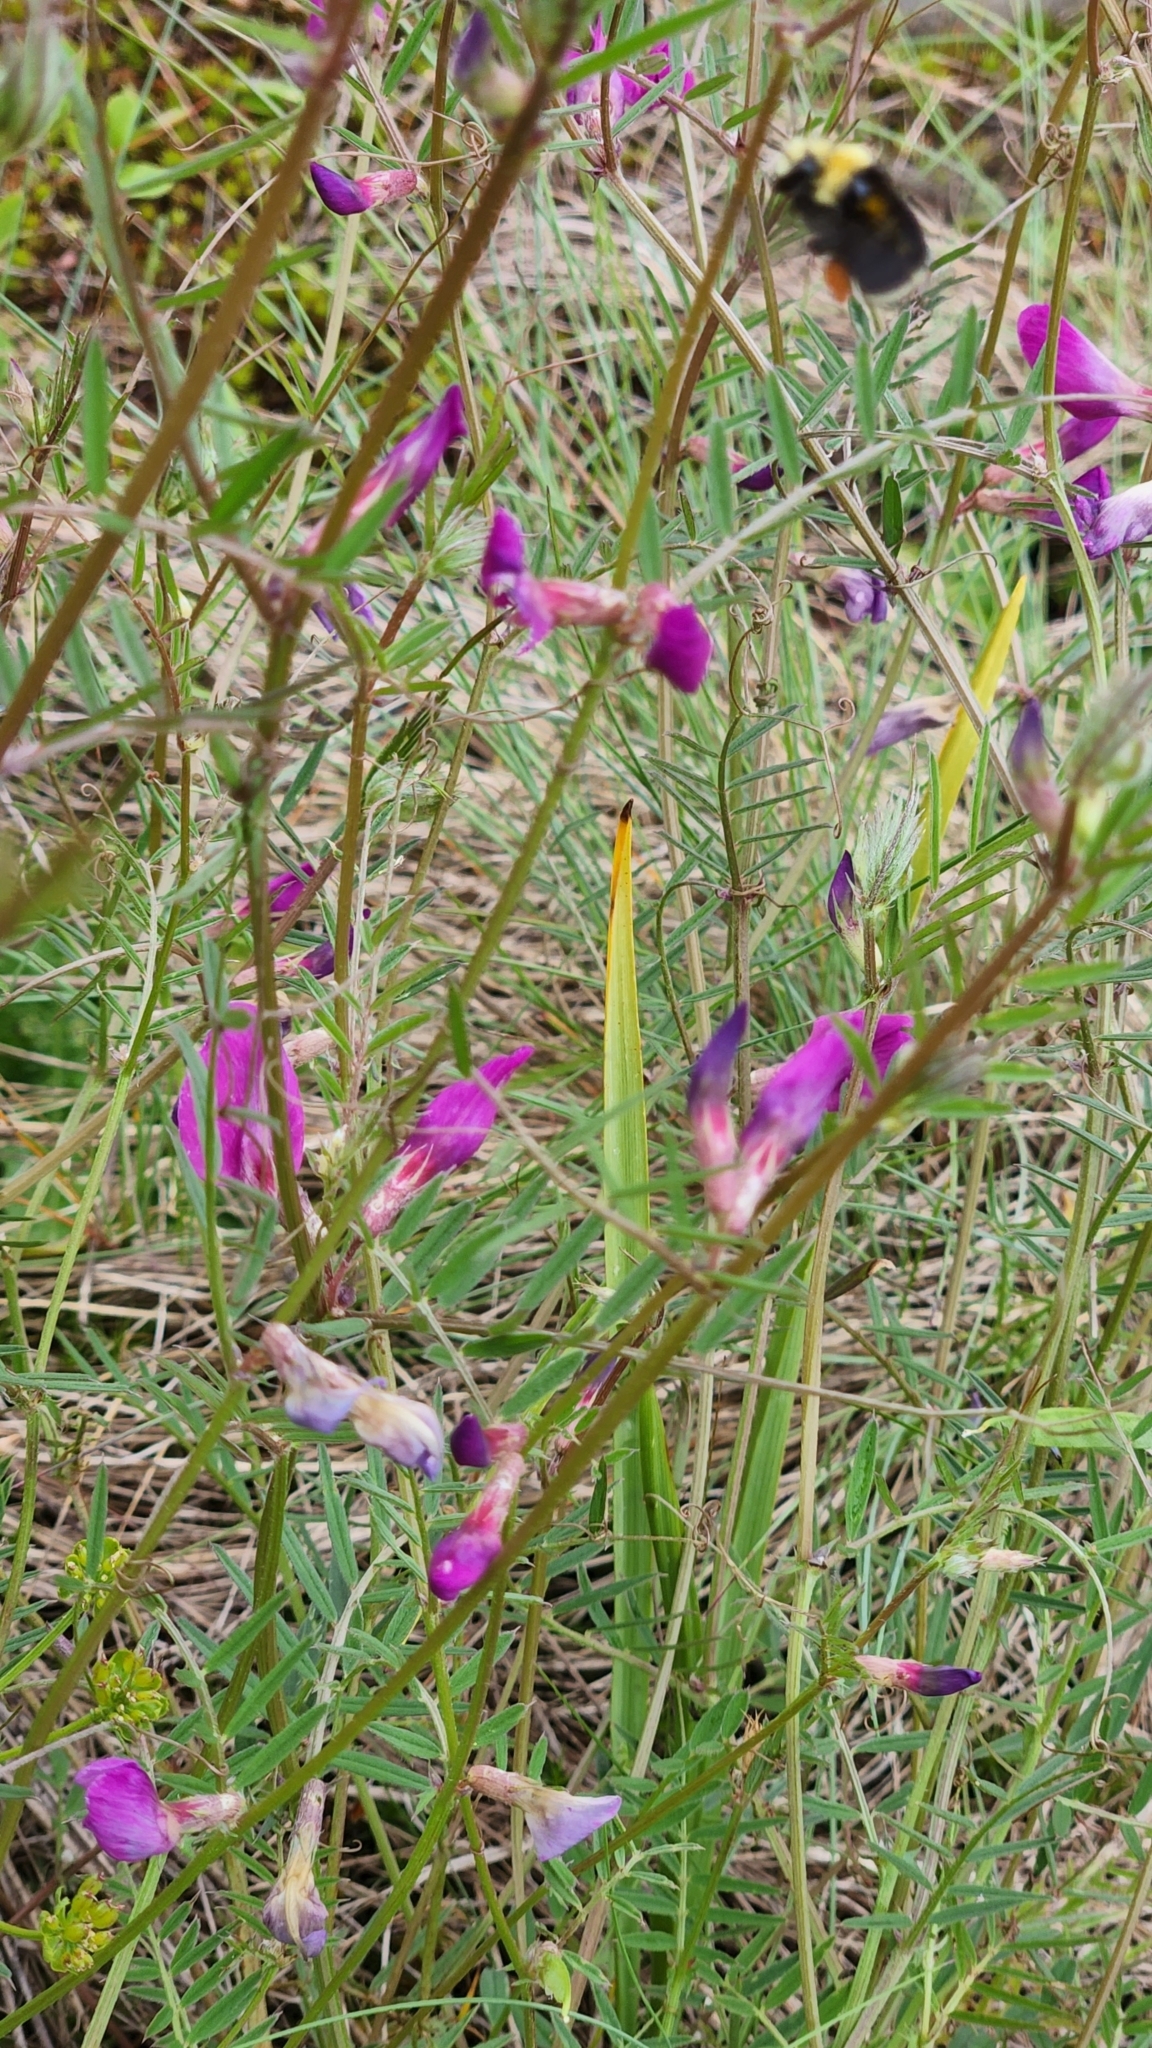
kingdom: Plantae
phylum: Tracheophyta
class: Magnoliopsida
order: Fabales
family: Fabaceae
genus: Vicia
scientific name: Vicia sativa
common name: Garden vetch
